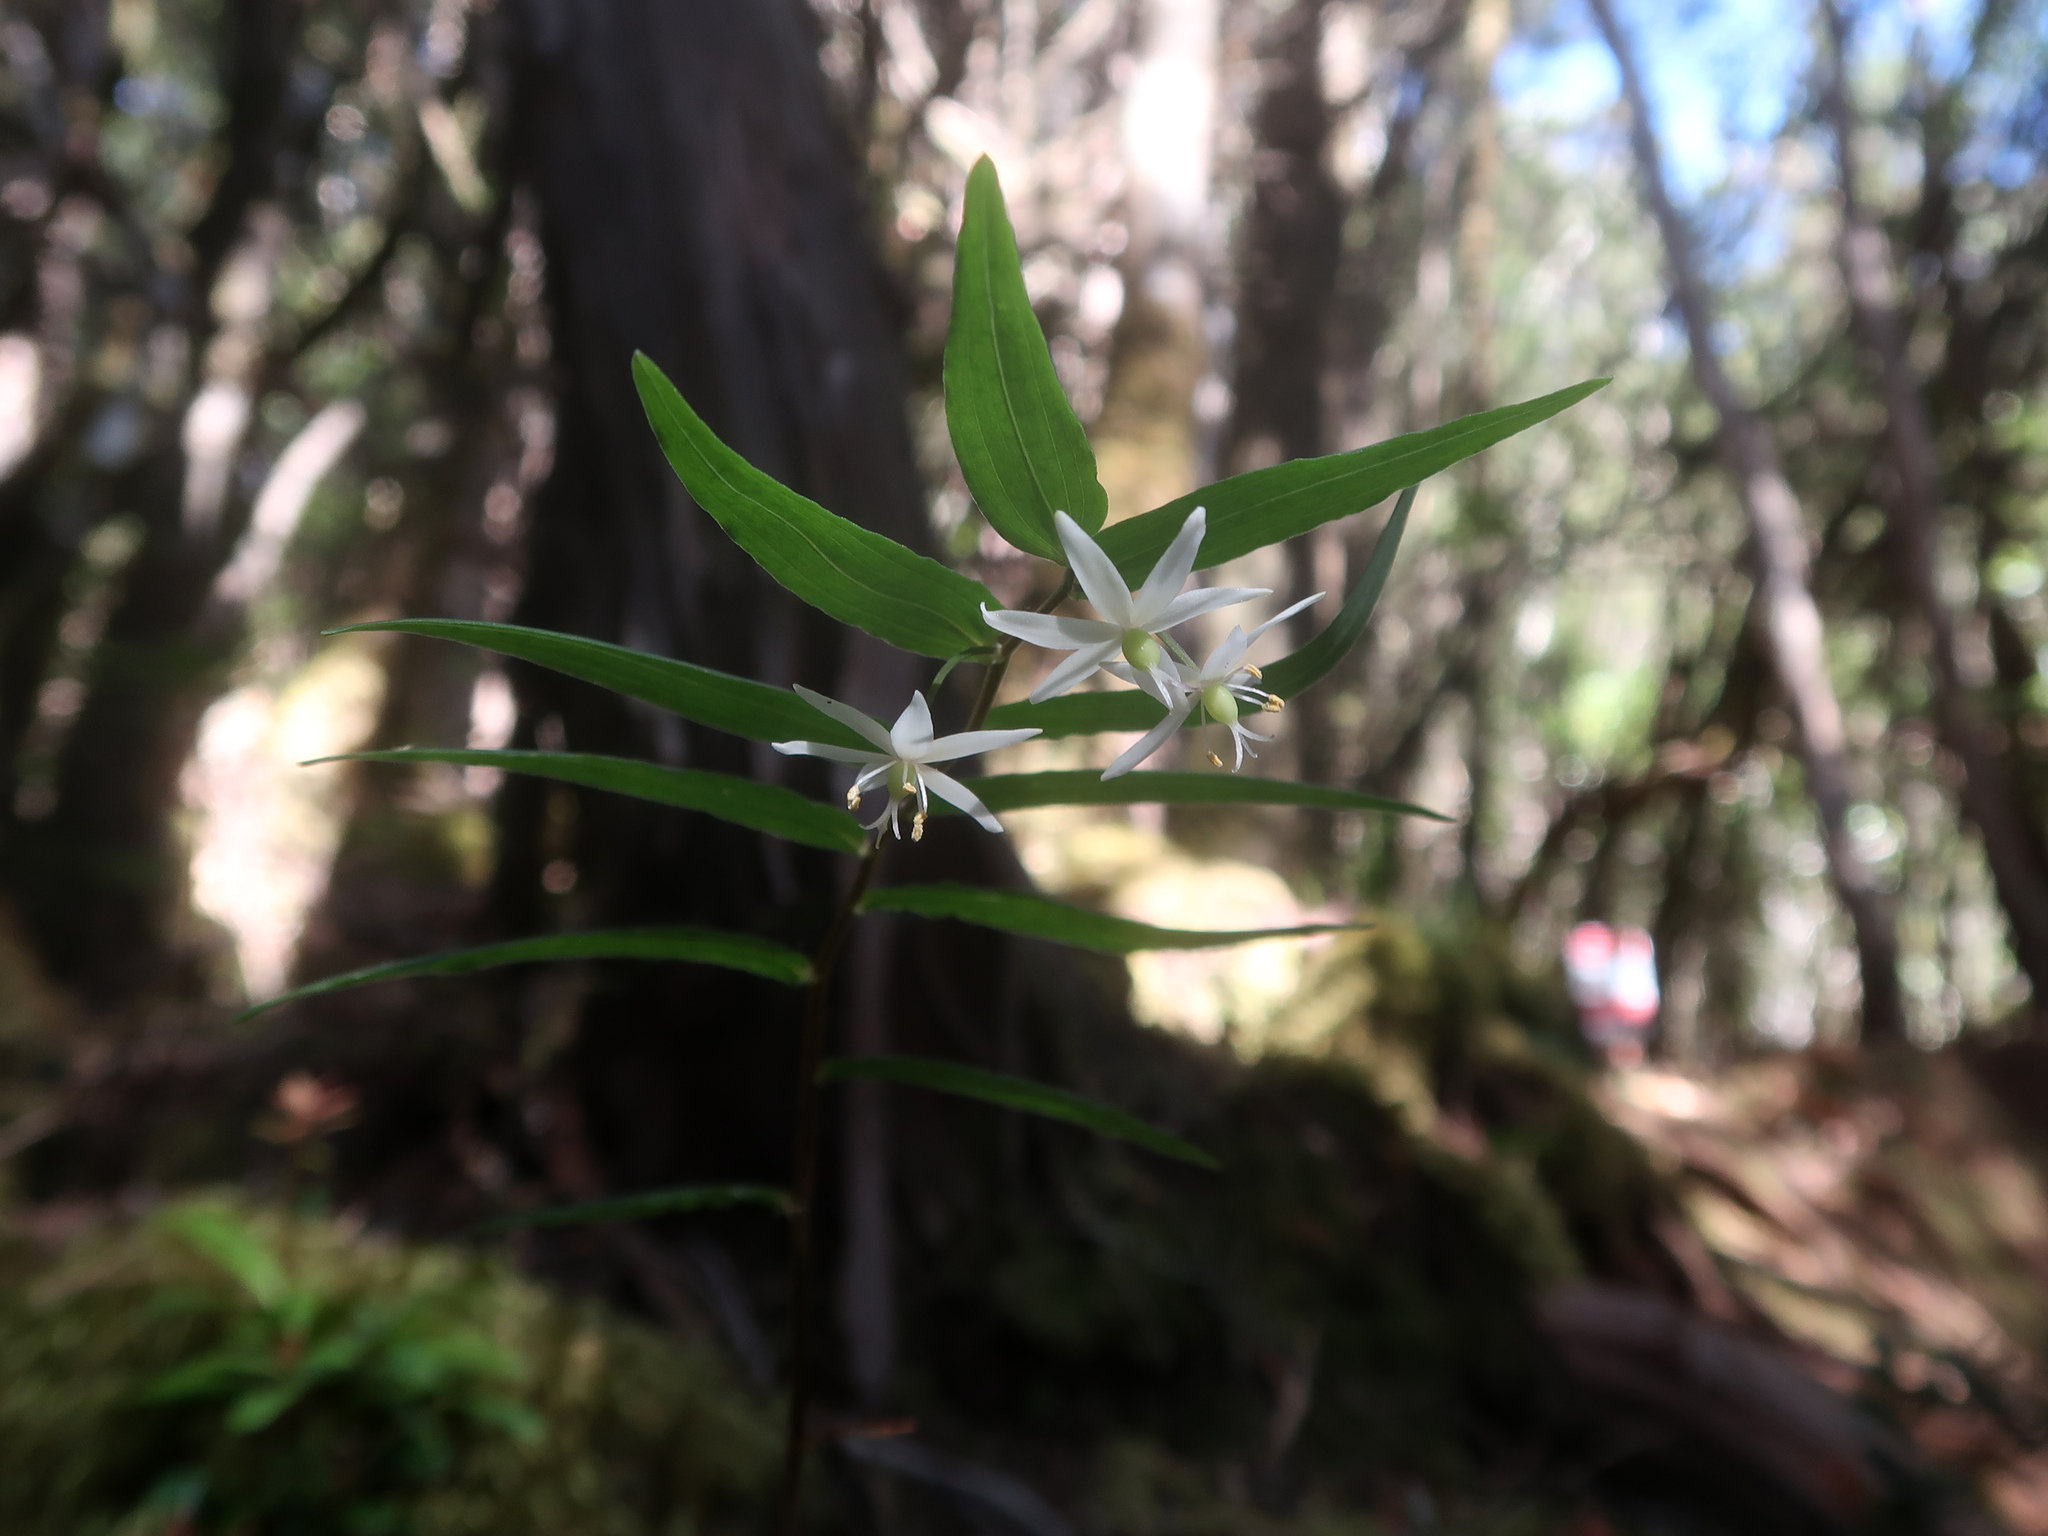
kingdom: Plantae
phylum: Tracheophyta
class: Liliopsida
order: Liliales
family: Alstroemeriaceae
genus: Drymophila
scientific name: Drymophila cyanocarpa
